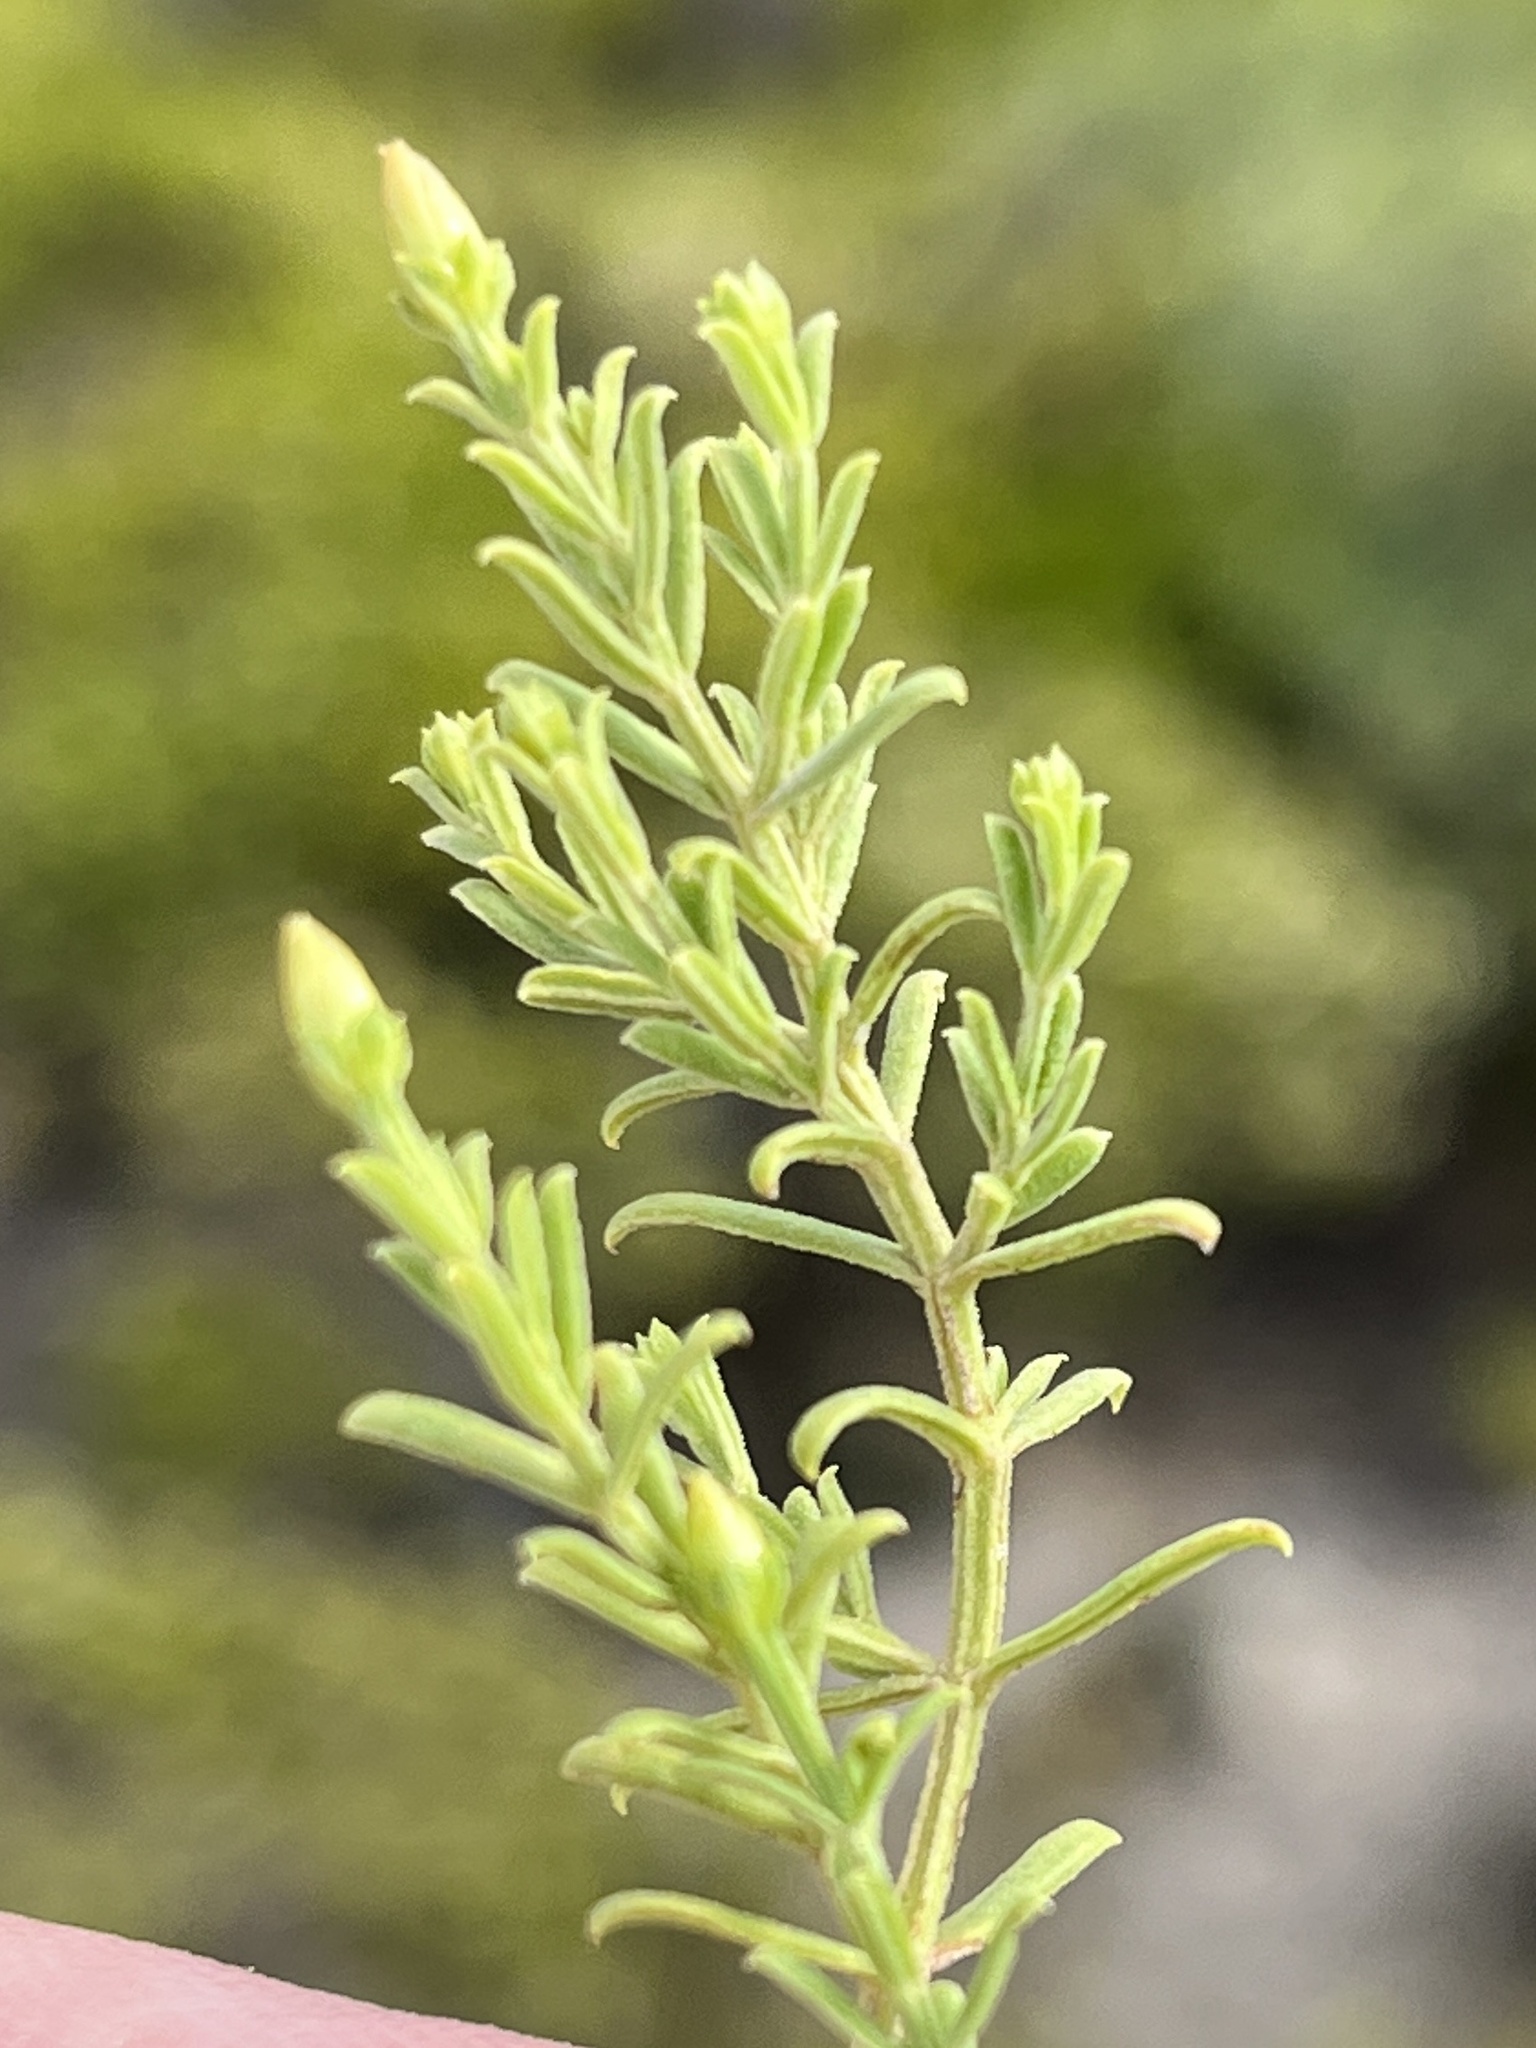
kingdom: Plantae
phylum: Tracheophyta
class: Magnoliopsida
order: Gentianales
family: Gentianaceae
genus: Chironia
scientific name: Chironia baccifera
